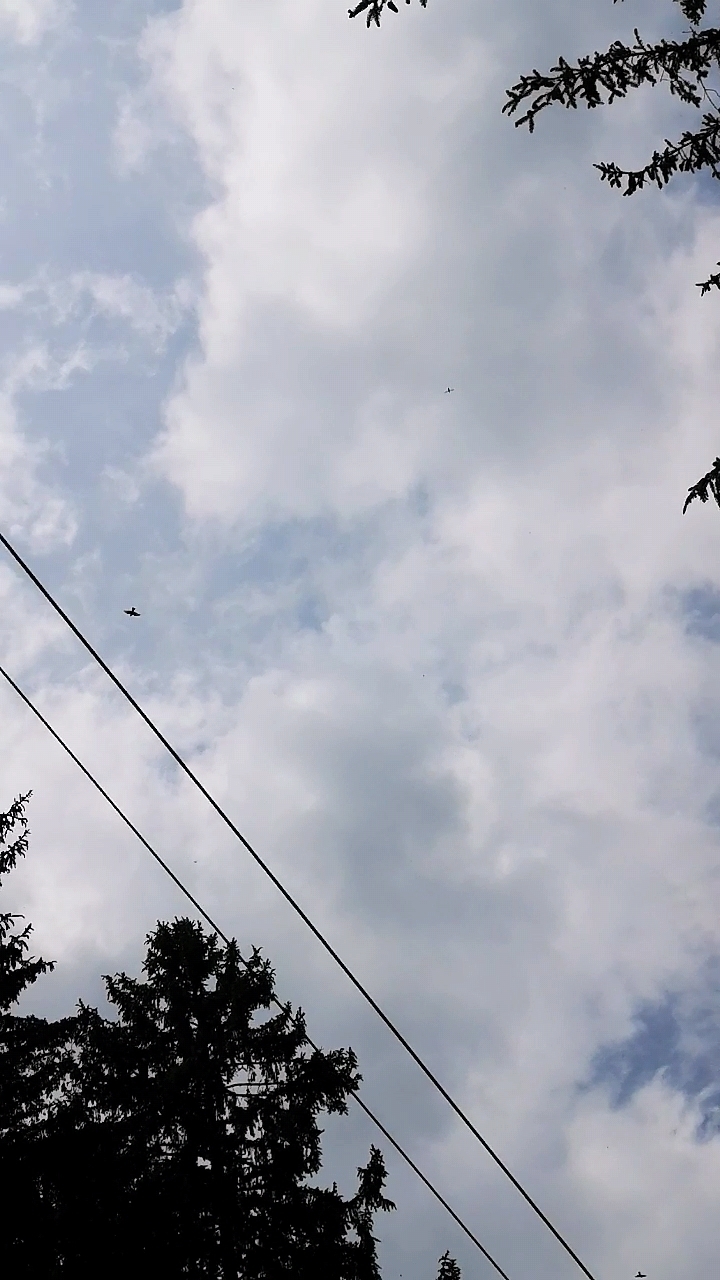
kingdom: Animalia
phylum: Chordata
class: Aves
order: Falconiformes
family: Falconidae
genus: Falco
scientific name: Falco subbuteo
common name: Eurasian hobby
